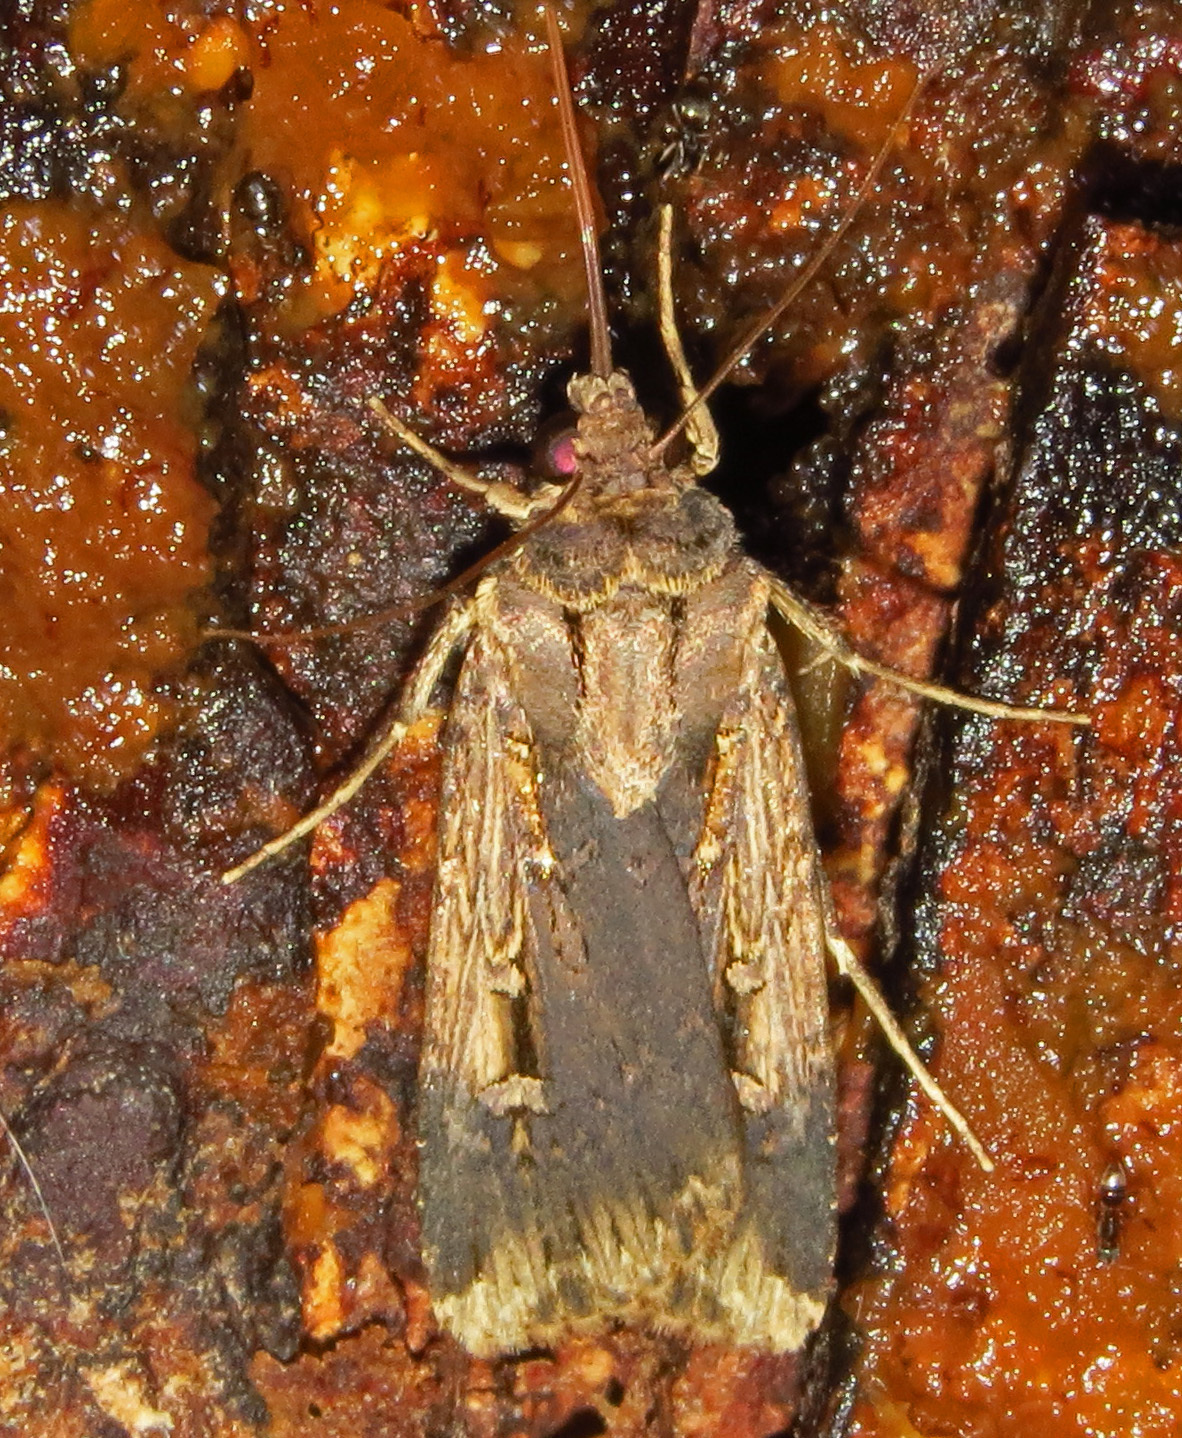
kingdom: Animalia
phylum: Arthropoda
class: Insecta
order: Lepidoptera
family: Noctuidae
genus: Feltia
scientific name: Feltia subterranea
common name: Granulate cutworm
